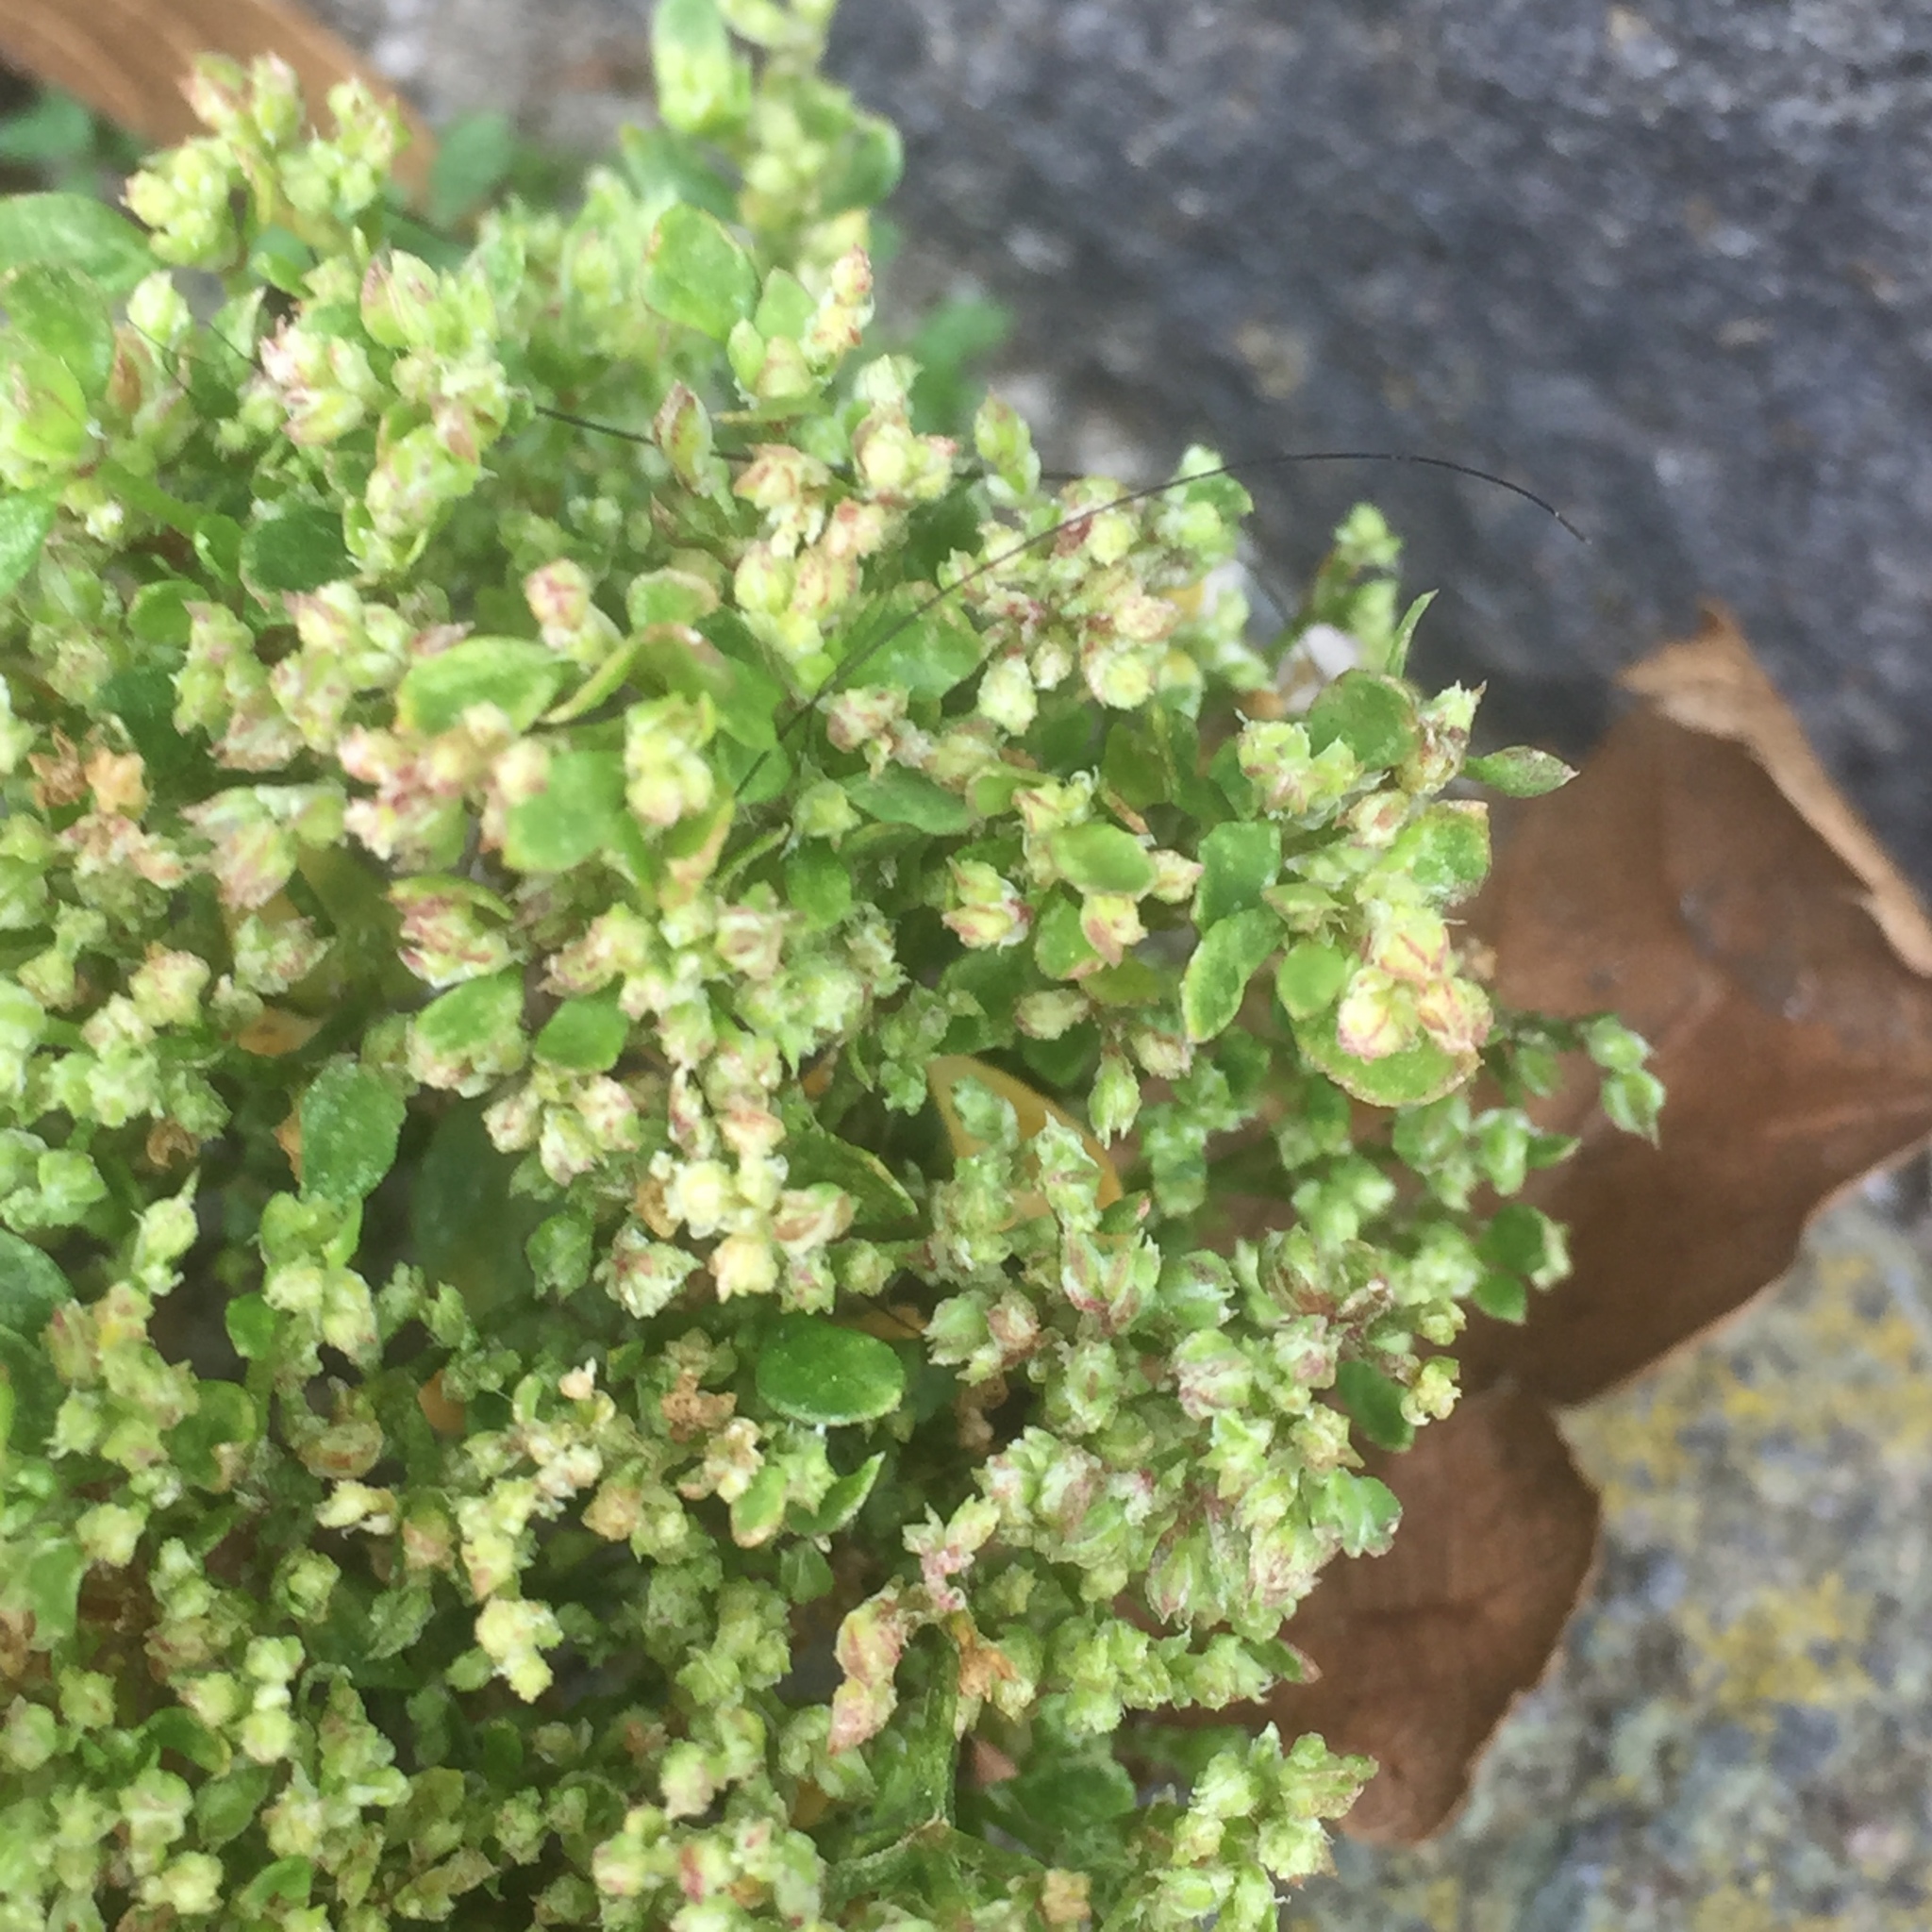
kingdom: Plantae
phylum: Tracheophyta
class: Magnoliopsida
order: Caryophyllales
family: Caryophyllaceae
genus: Polycarpon
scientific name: Polycarpon tetraphyllum
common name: Four-leaved all-seed
